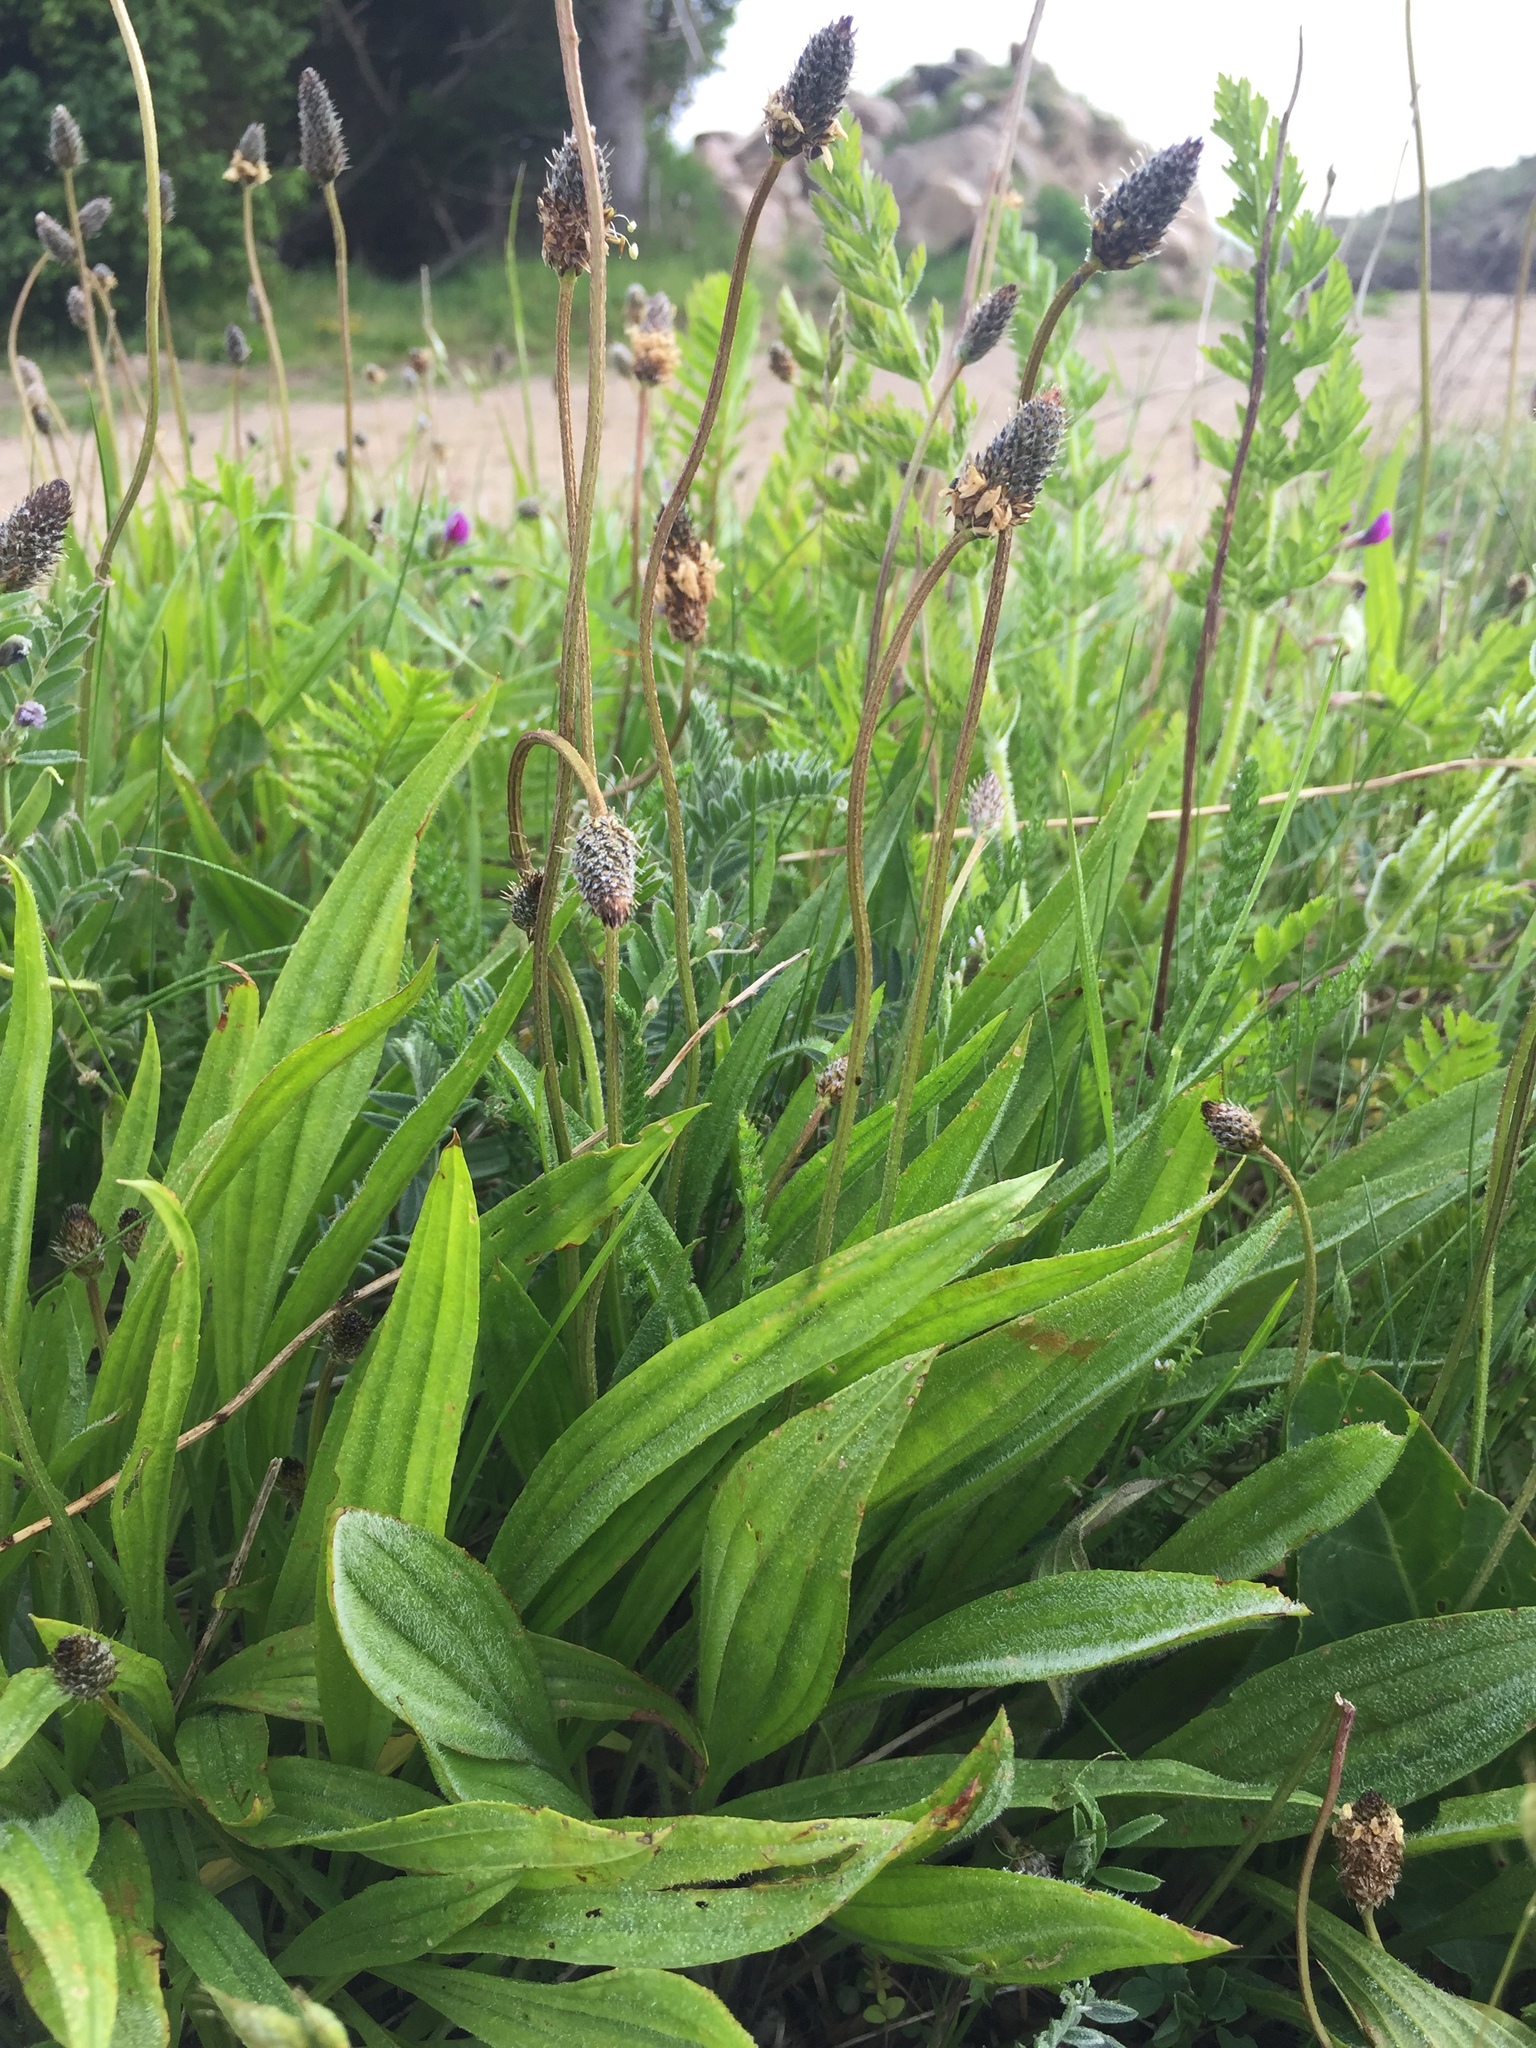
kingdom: Plantae
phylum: Tracheophyta
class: Magnoliopsida
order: Lamiales
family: Plantaginaceae
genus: Plantago
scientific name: Plantago lanceolata
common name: Ribwort plantain
